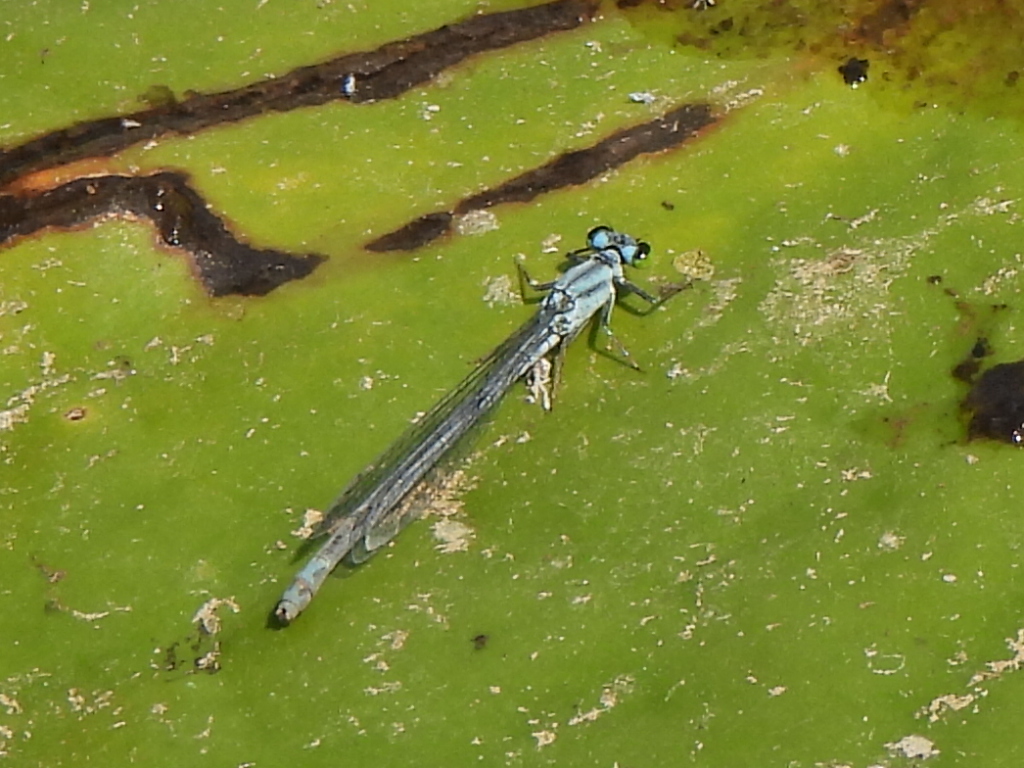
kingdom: Animalia
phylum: Arthropoda
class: Insecta
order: Odonata
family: Coenagrionidae
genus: Ischnura
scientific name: Ischnura kellicotti
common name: Lilypad forktail
